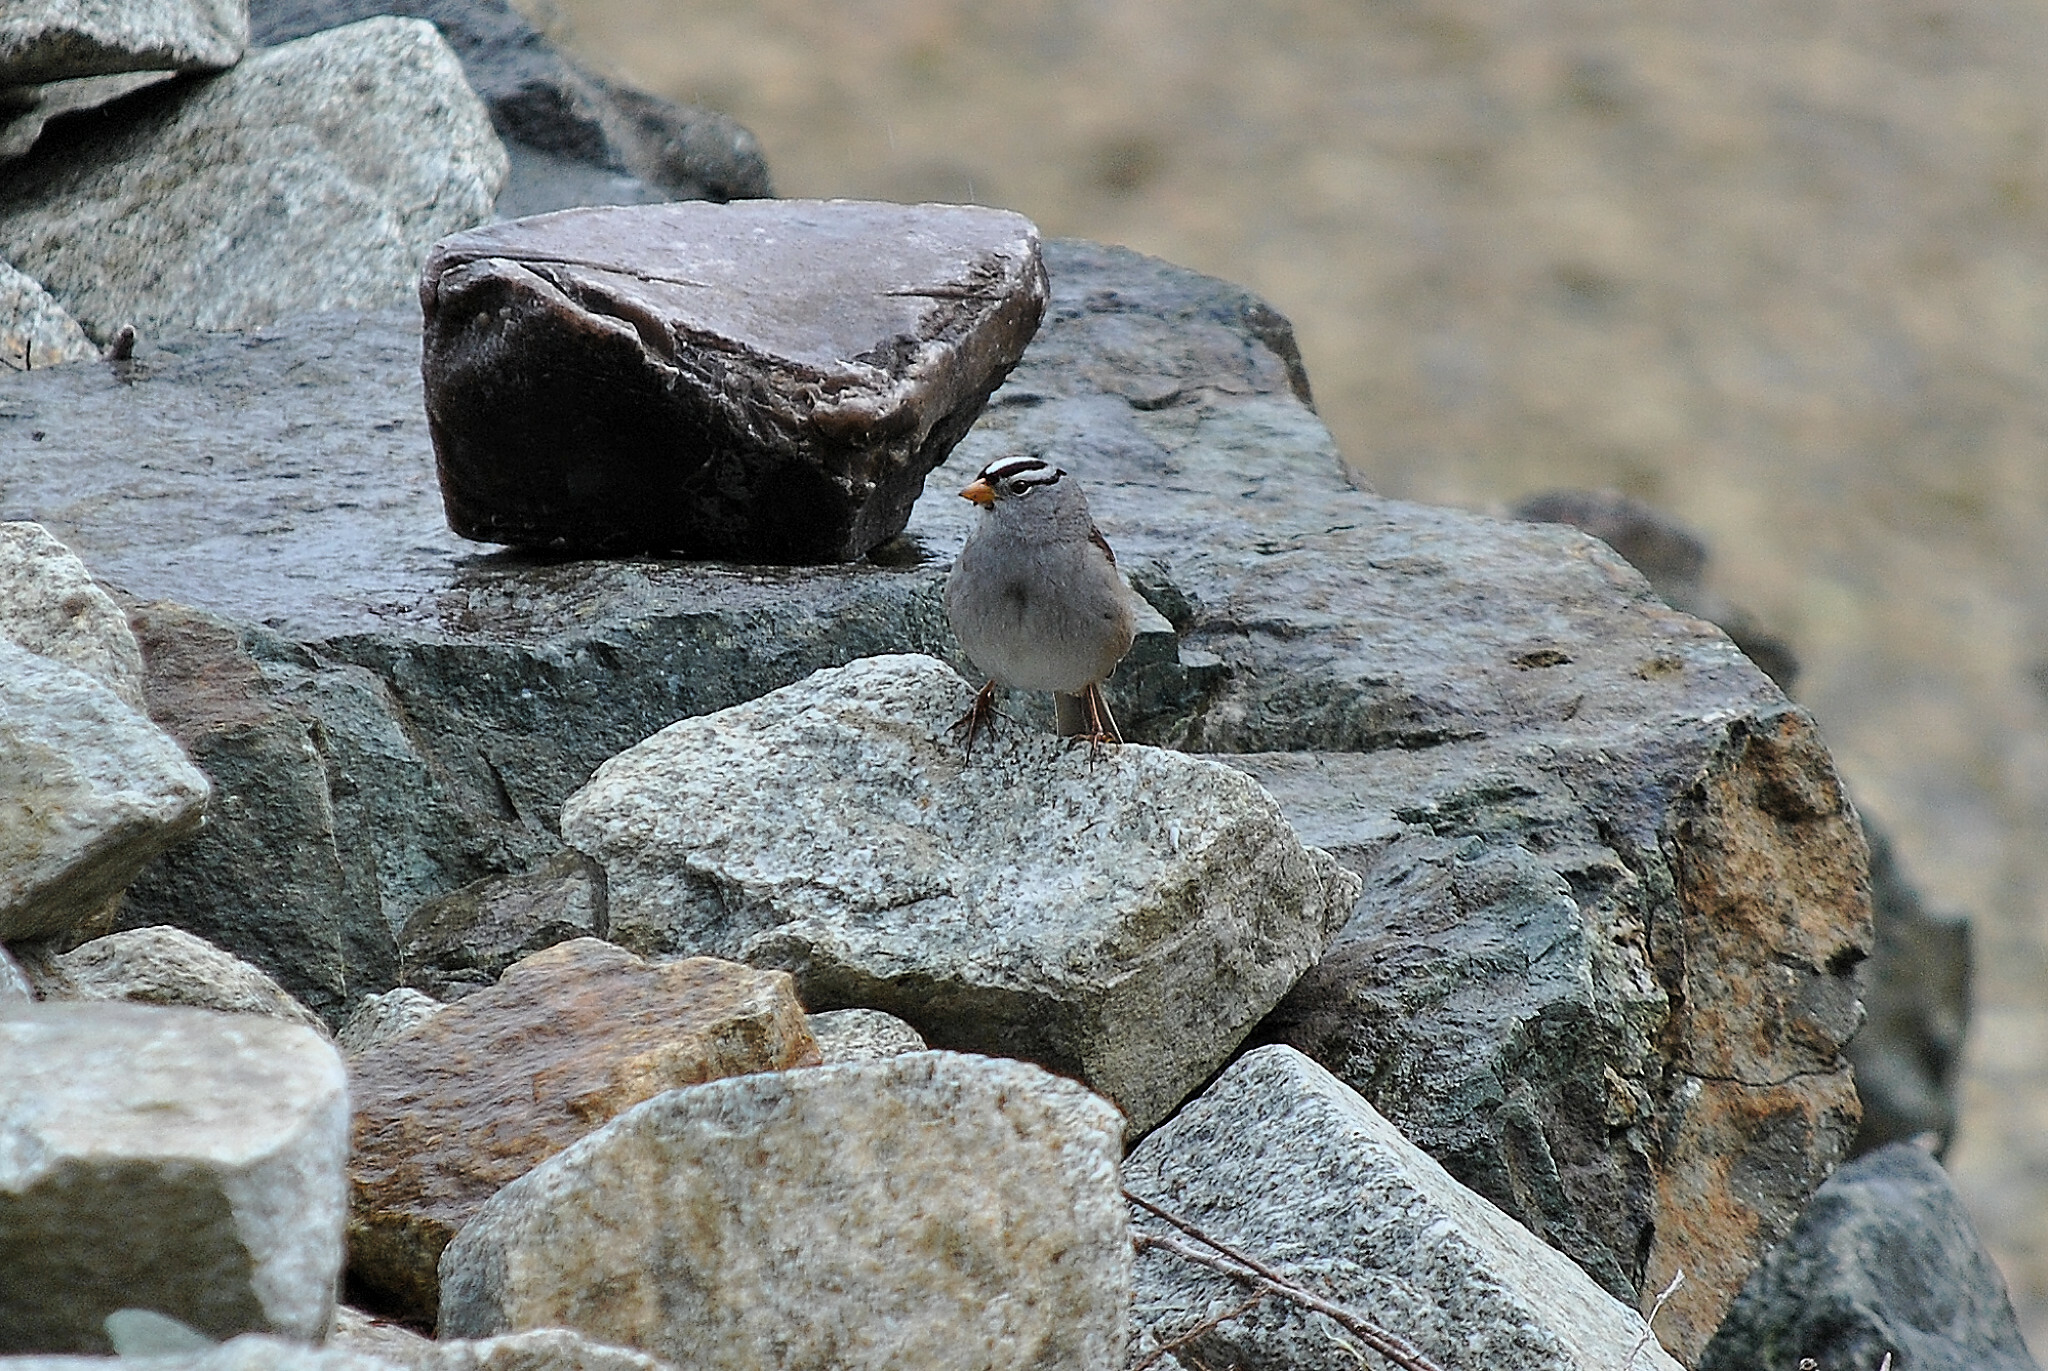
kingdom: Animalia
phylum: Chordata
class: Aves
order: Passeriformes
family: Passerellidae
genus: Zonotrichia
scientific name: Zonotrichia leucophrys
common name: White-crowned sparrow
